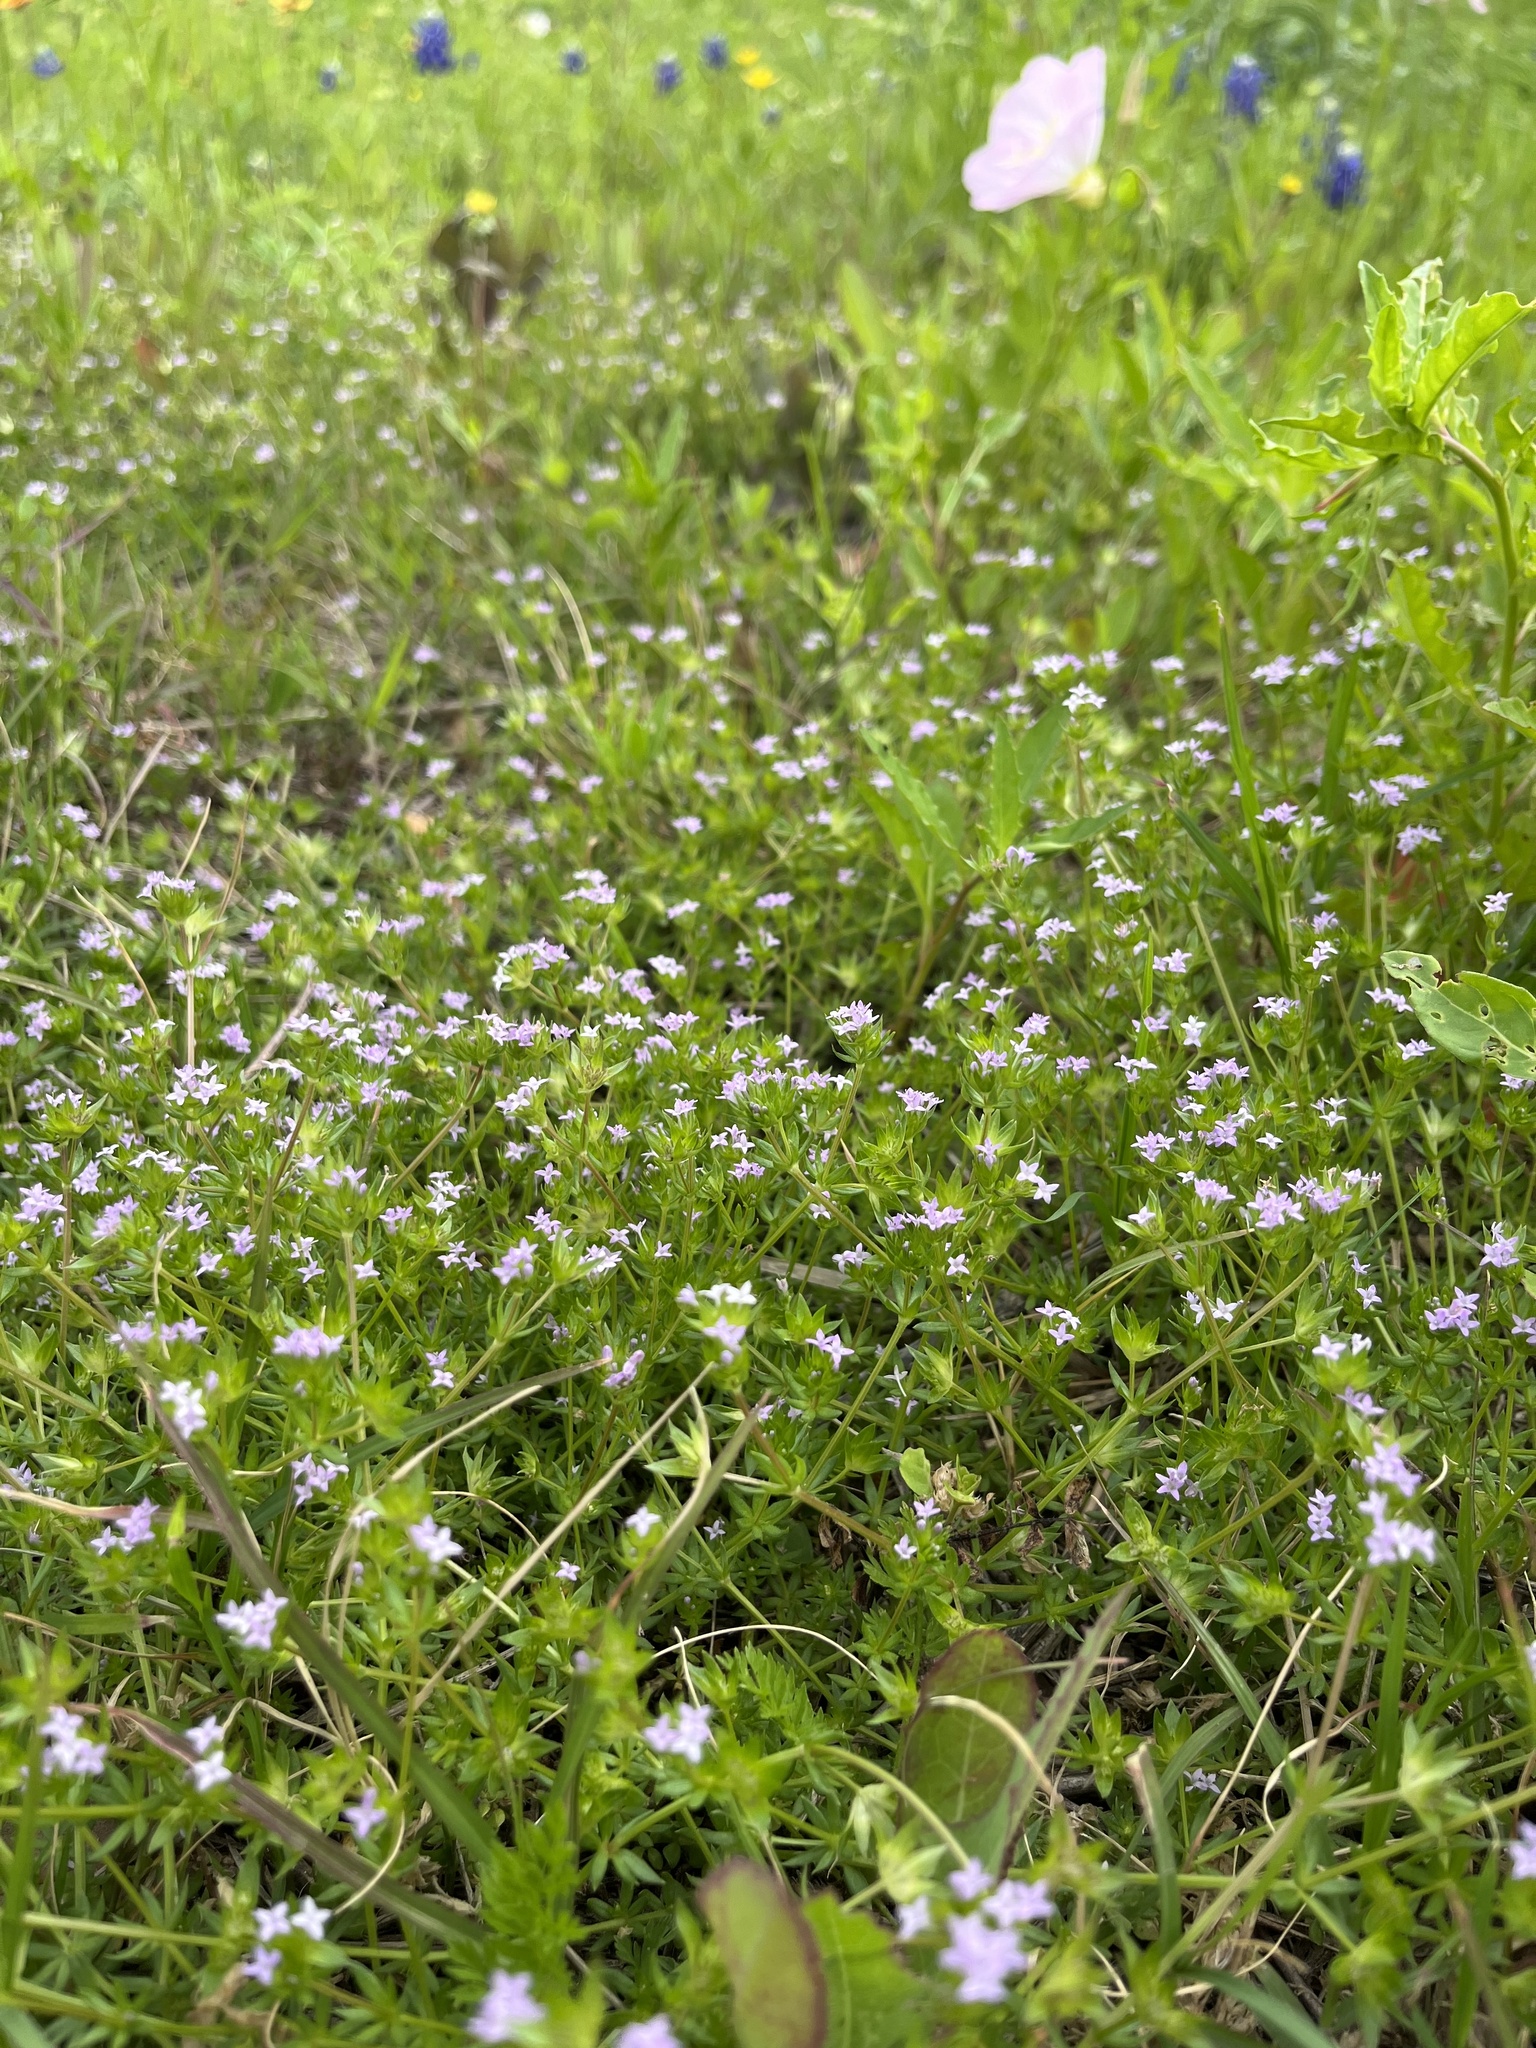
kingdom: Plantae
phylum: Tracheophyta
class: Magnoliopsida
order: Gentianales
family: Rubiaceae
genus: Sherardia
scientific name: Sherardia arvensis
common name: Field madder
